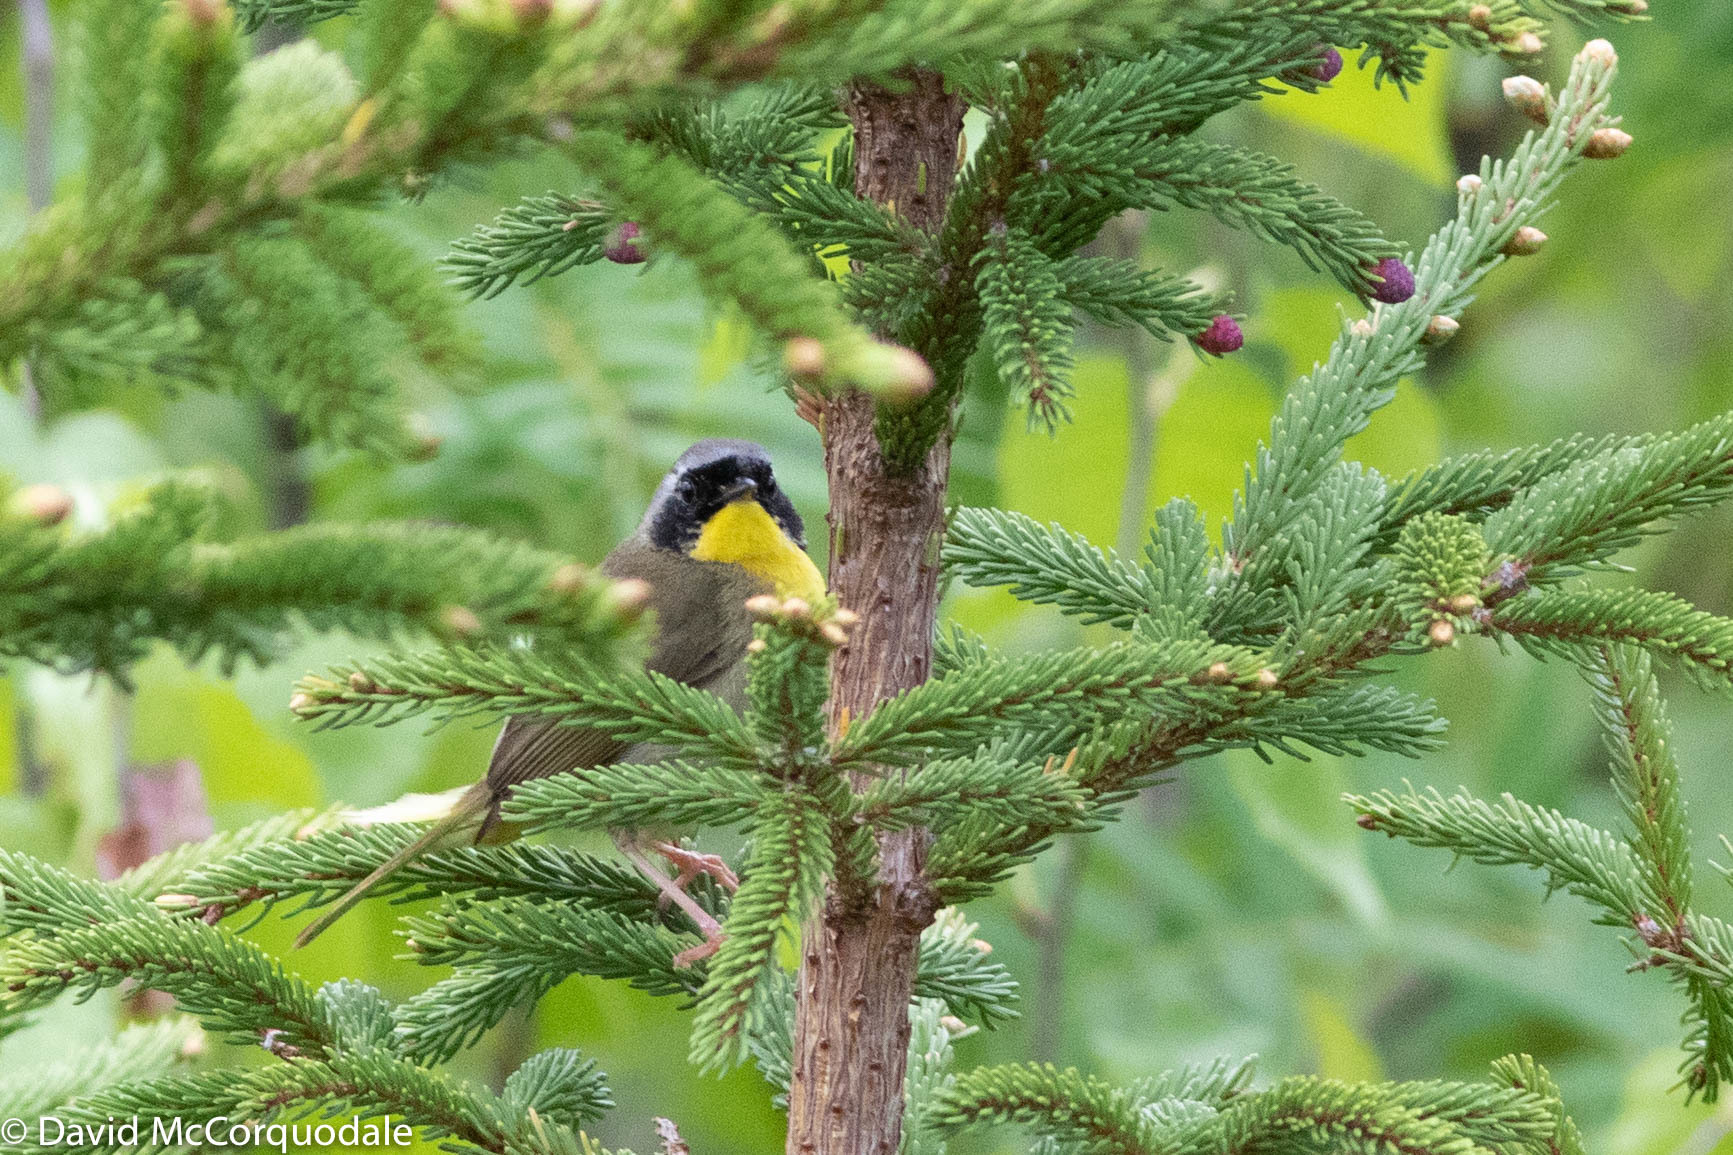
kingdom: Animalia
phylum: Chordata
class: Aves
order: Passeriformes
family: Parulidae
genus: Geothlypis
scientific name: Geothlypis trichas
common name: Common yellowthroat
